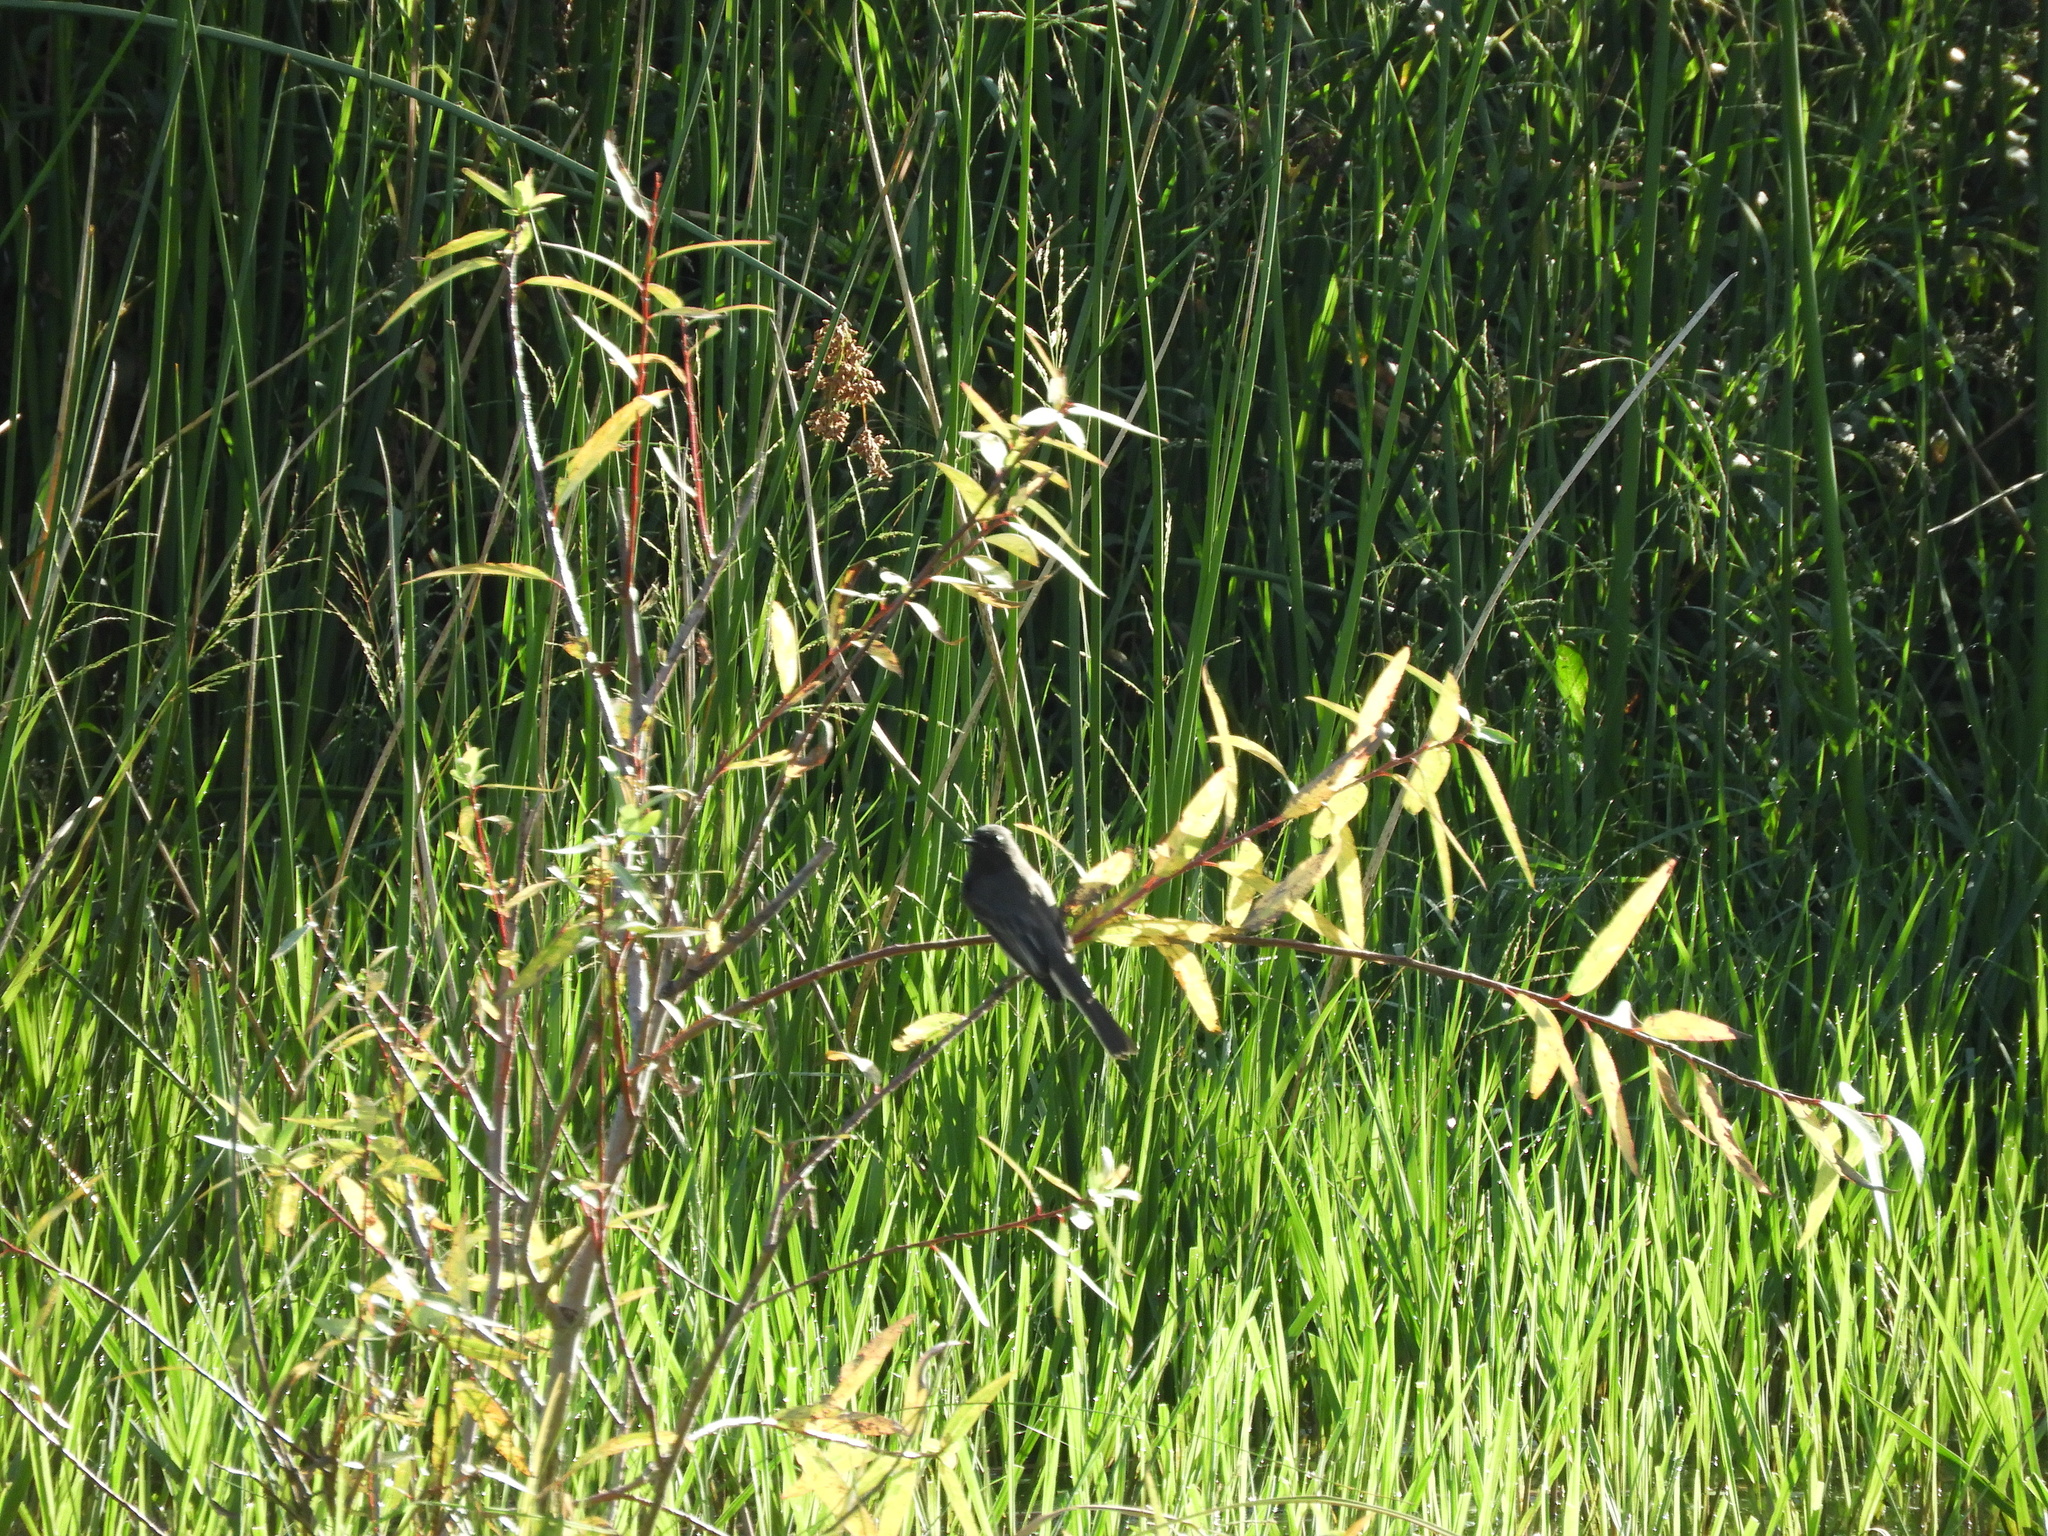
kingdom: Animalia
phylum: Chordata
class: Aves
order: Passeriformes
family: Tyrannidae
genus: Sayornis
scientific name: Sayornis nigricans
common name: Black phoebe
